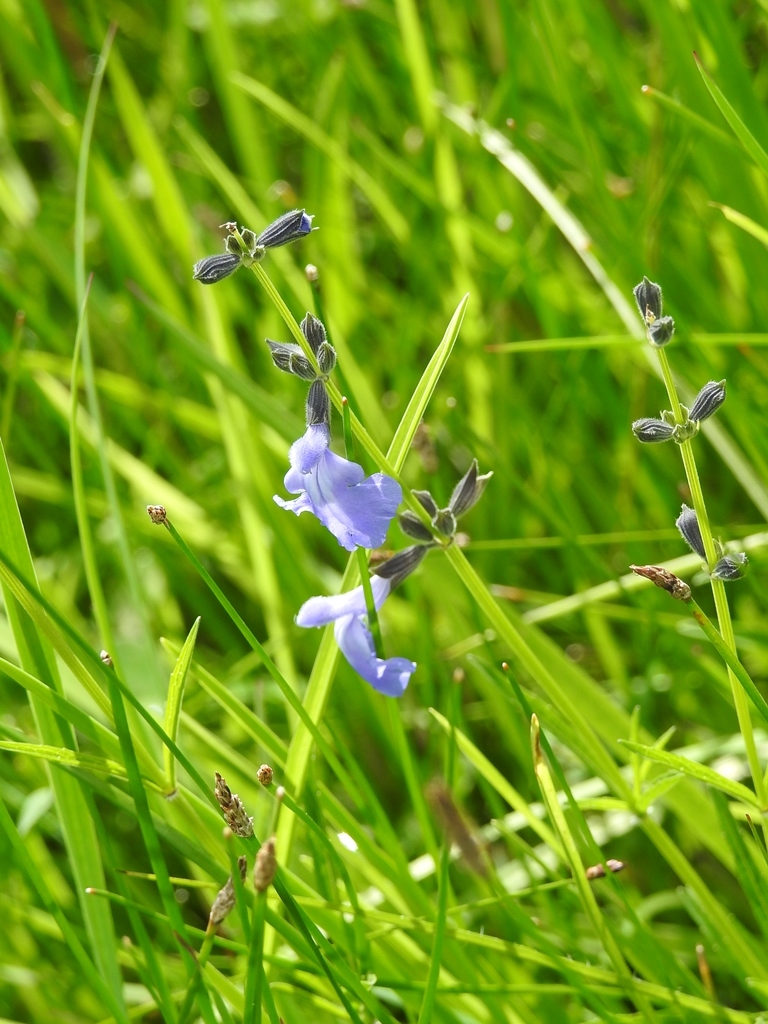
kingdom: Plantae
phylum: Tracheophyta
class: Magnoliopsida
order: Lamiales
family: Lamiaceae
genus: Salvia
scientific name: Salvia reptans
